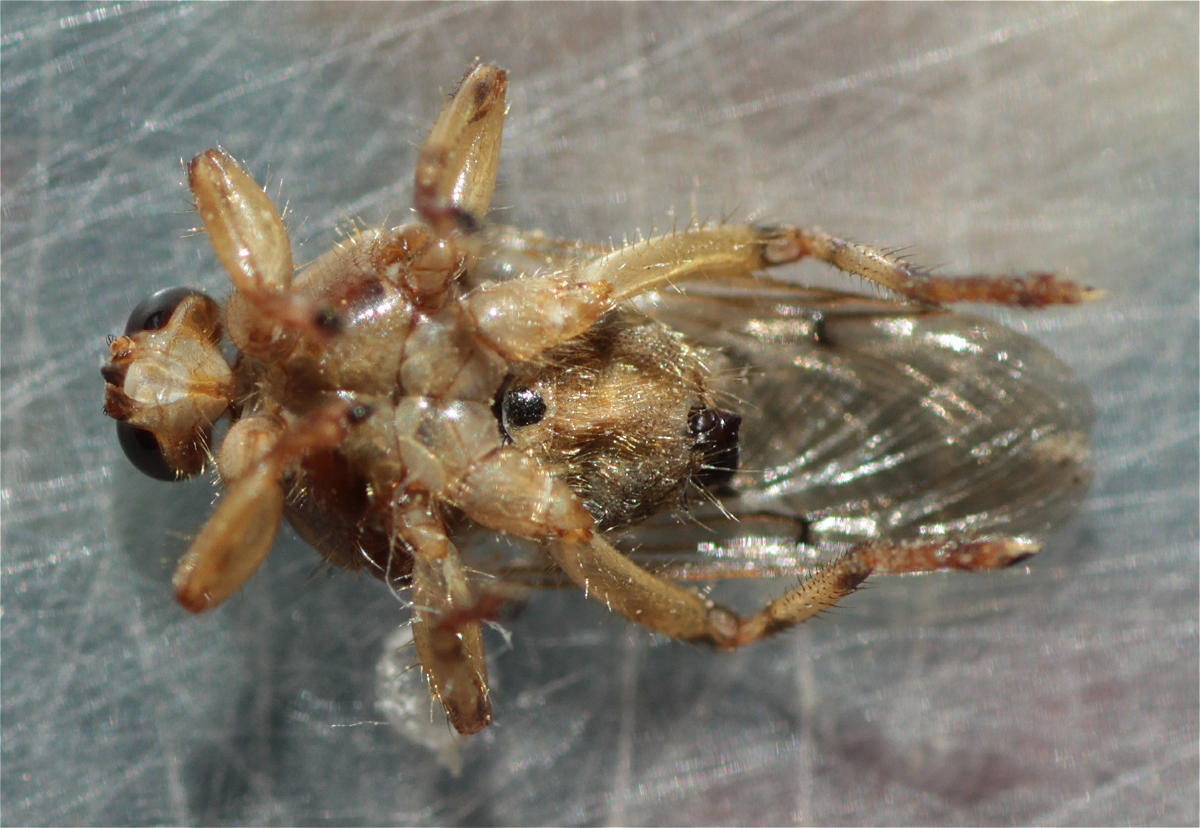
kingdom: Animalia
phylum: Arthropoda
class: Insecta
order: Diptera
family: Hippoboscidae
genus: Hippobosca
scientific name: Hippobosca longipennis
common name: Louse fly
